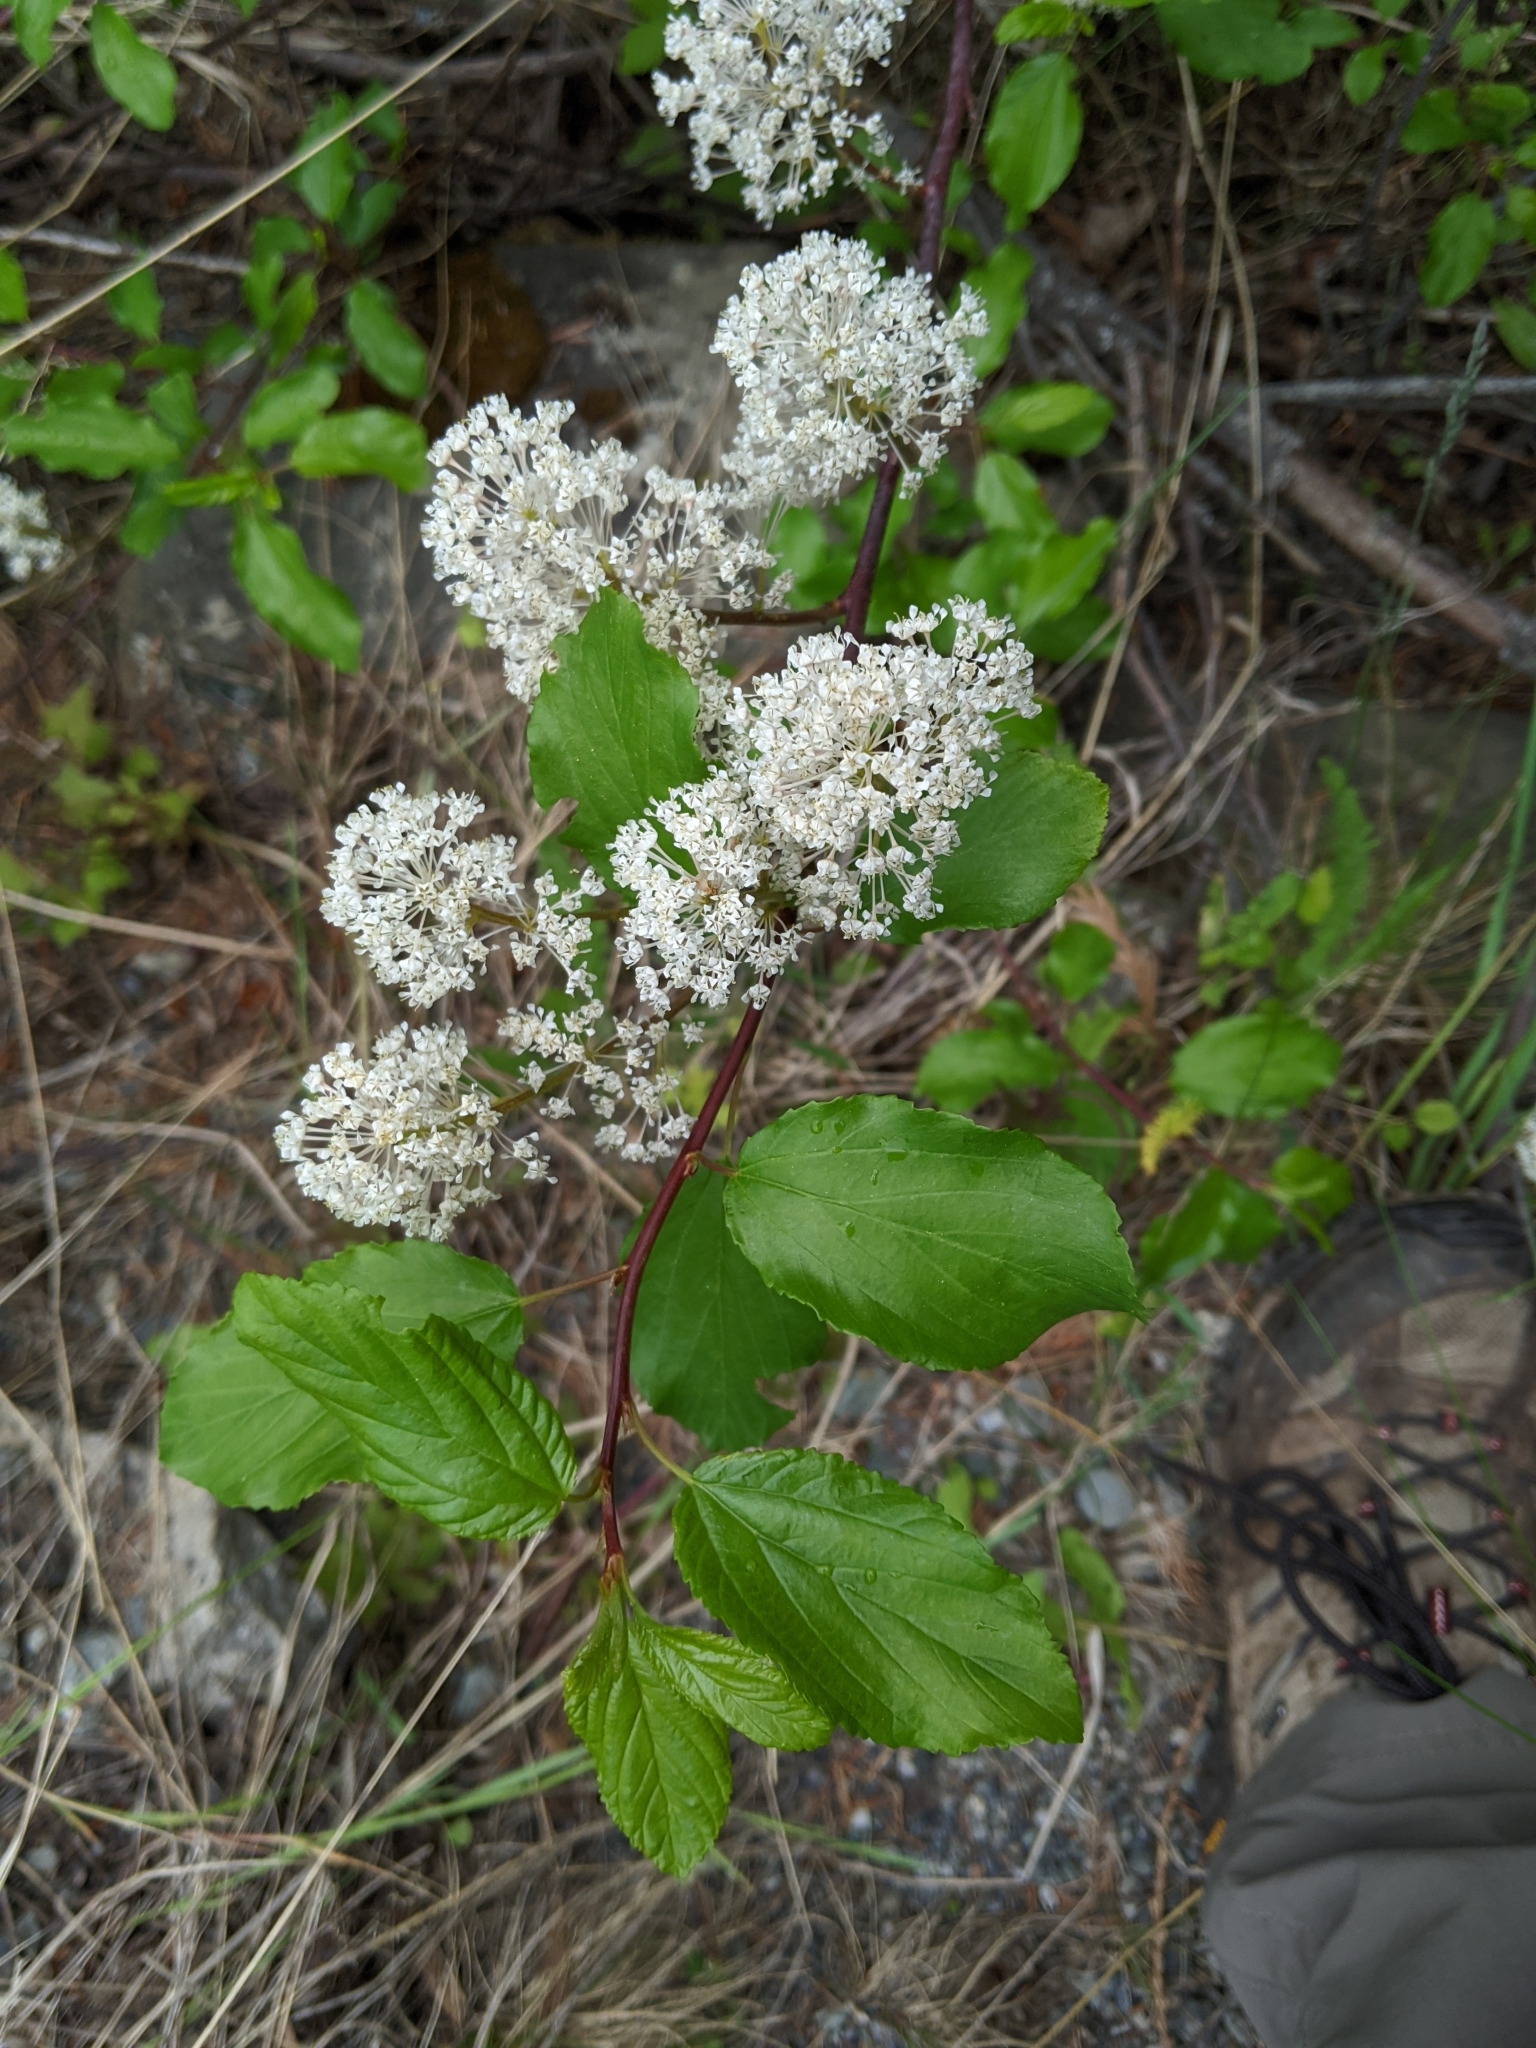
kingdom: Plantae
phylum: Tracheophyta
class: Magnoliopsida
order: Rosales
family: Rhamnaceae
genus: Ceanothus
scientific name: Ceanothus sanguineus
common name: Teatree
